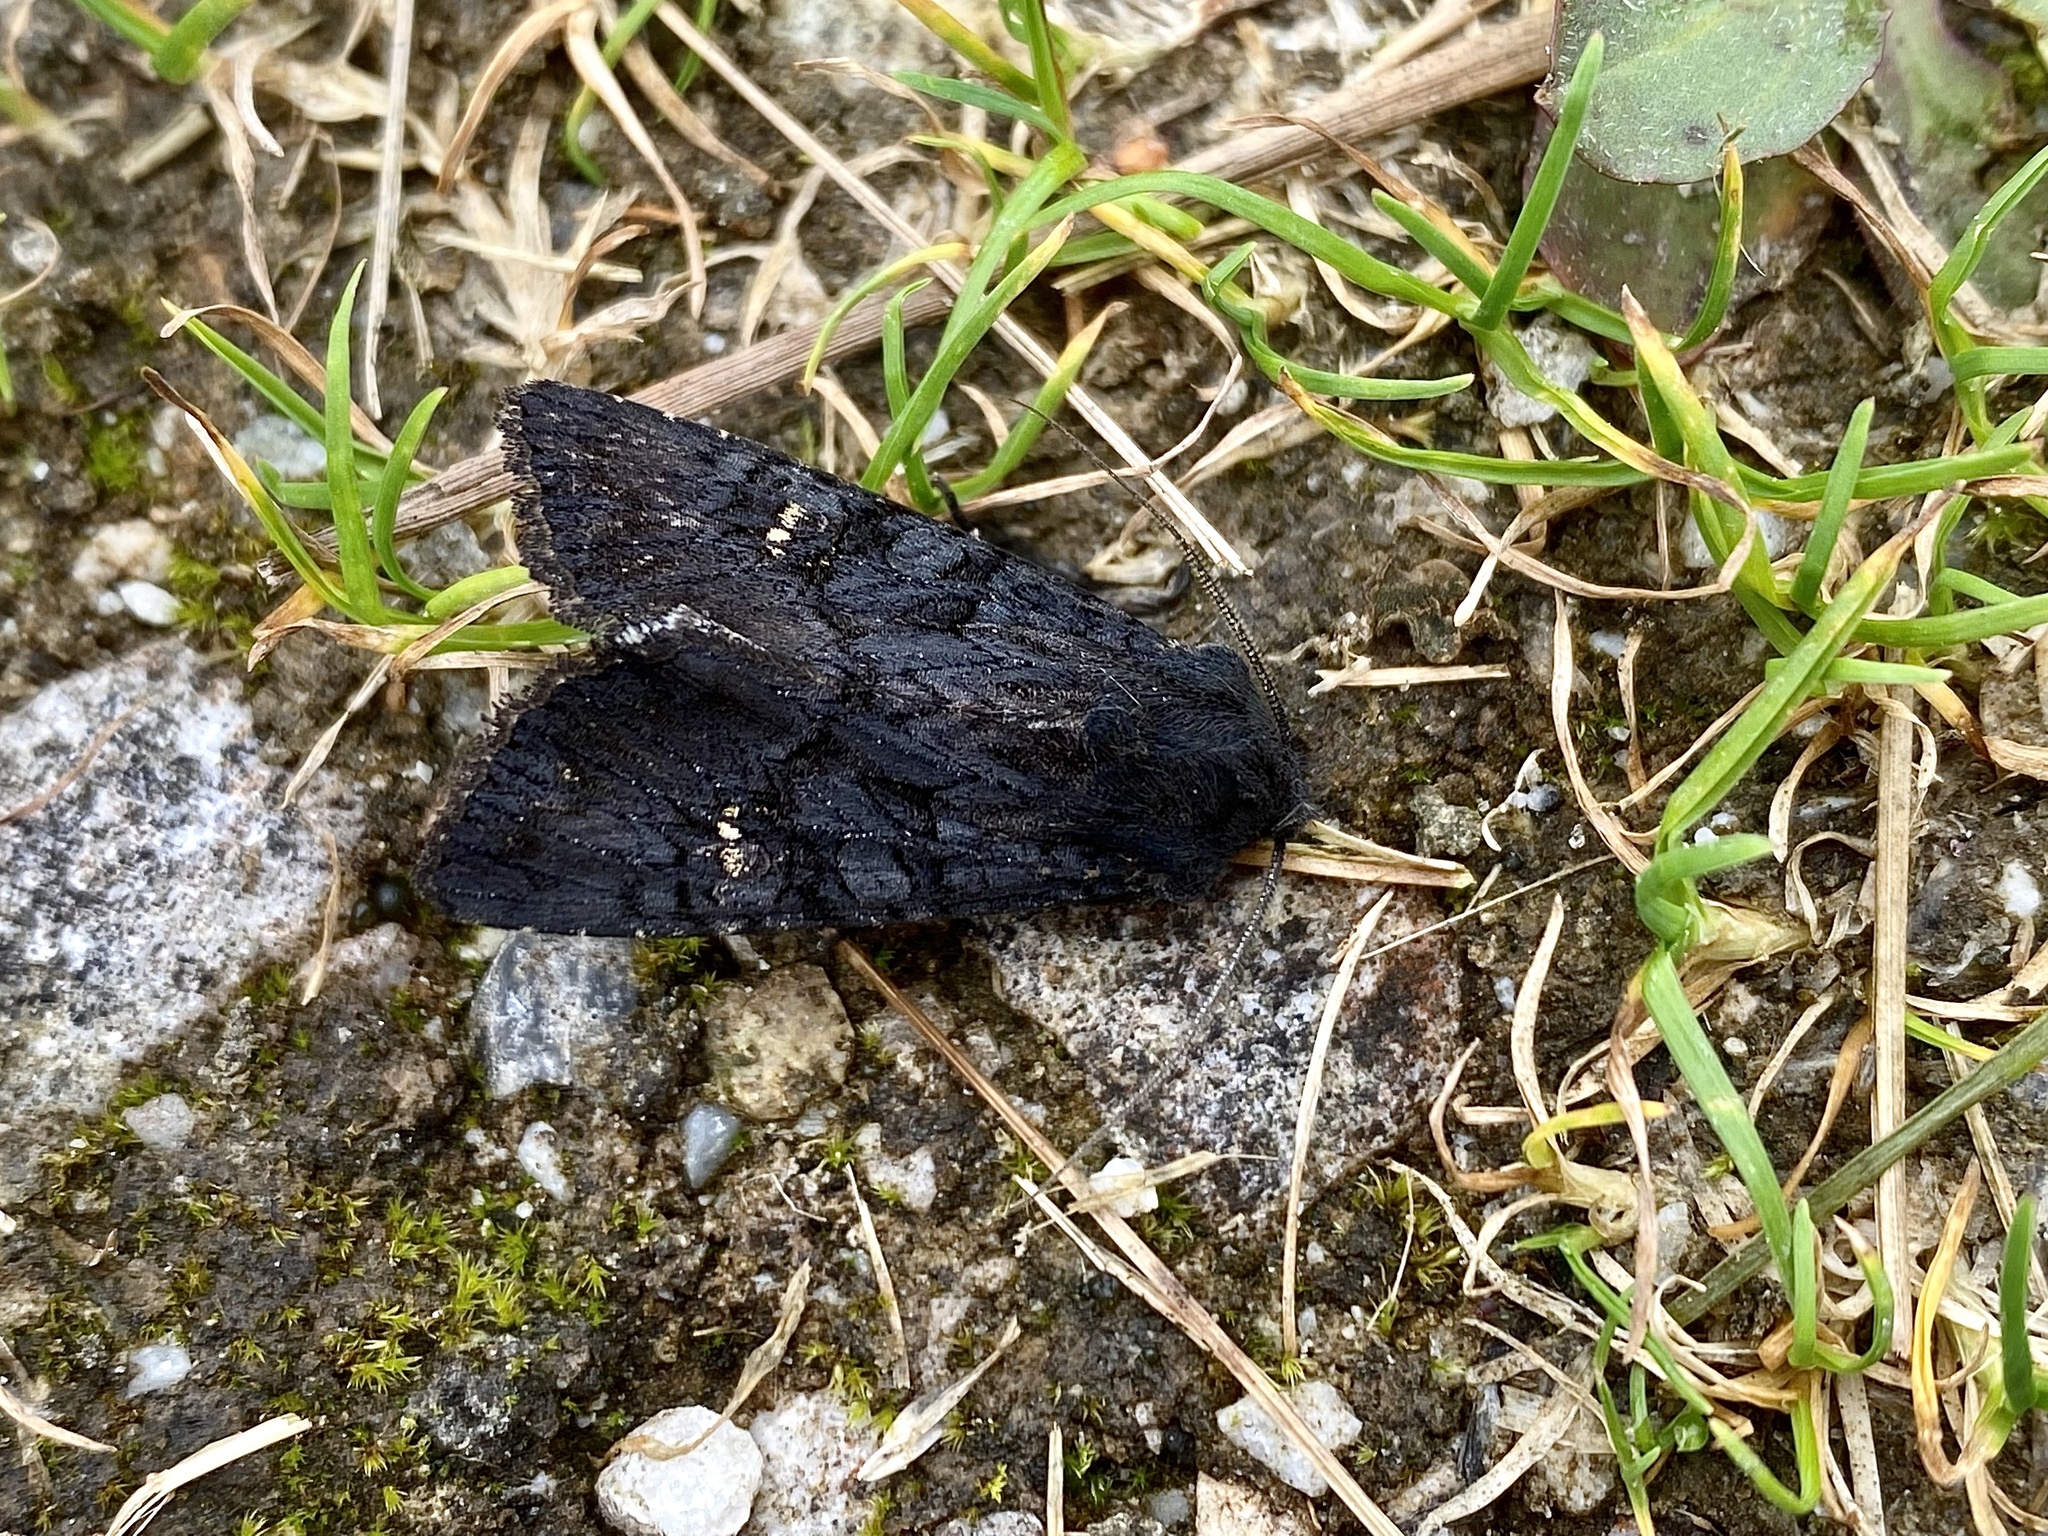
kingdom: Animalia
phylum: Arthropoda
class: Insecta
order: Lepidoptera
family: Noctuidae
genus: Aporophyla
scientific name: Aporophyla nigra
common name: Black rustic
